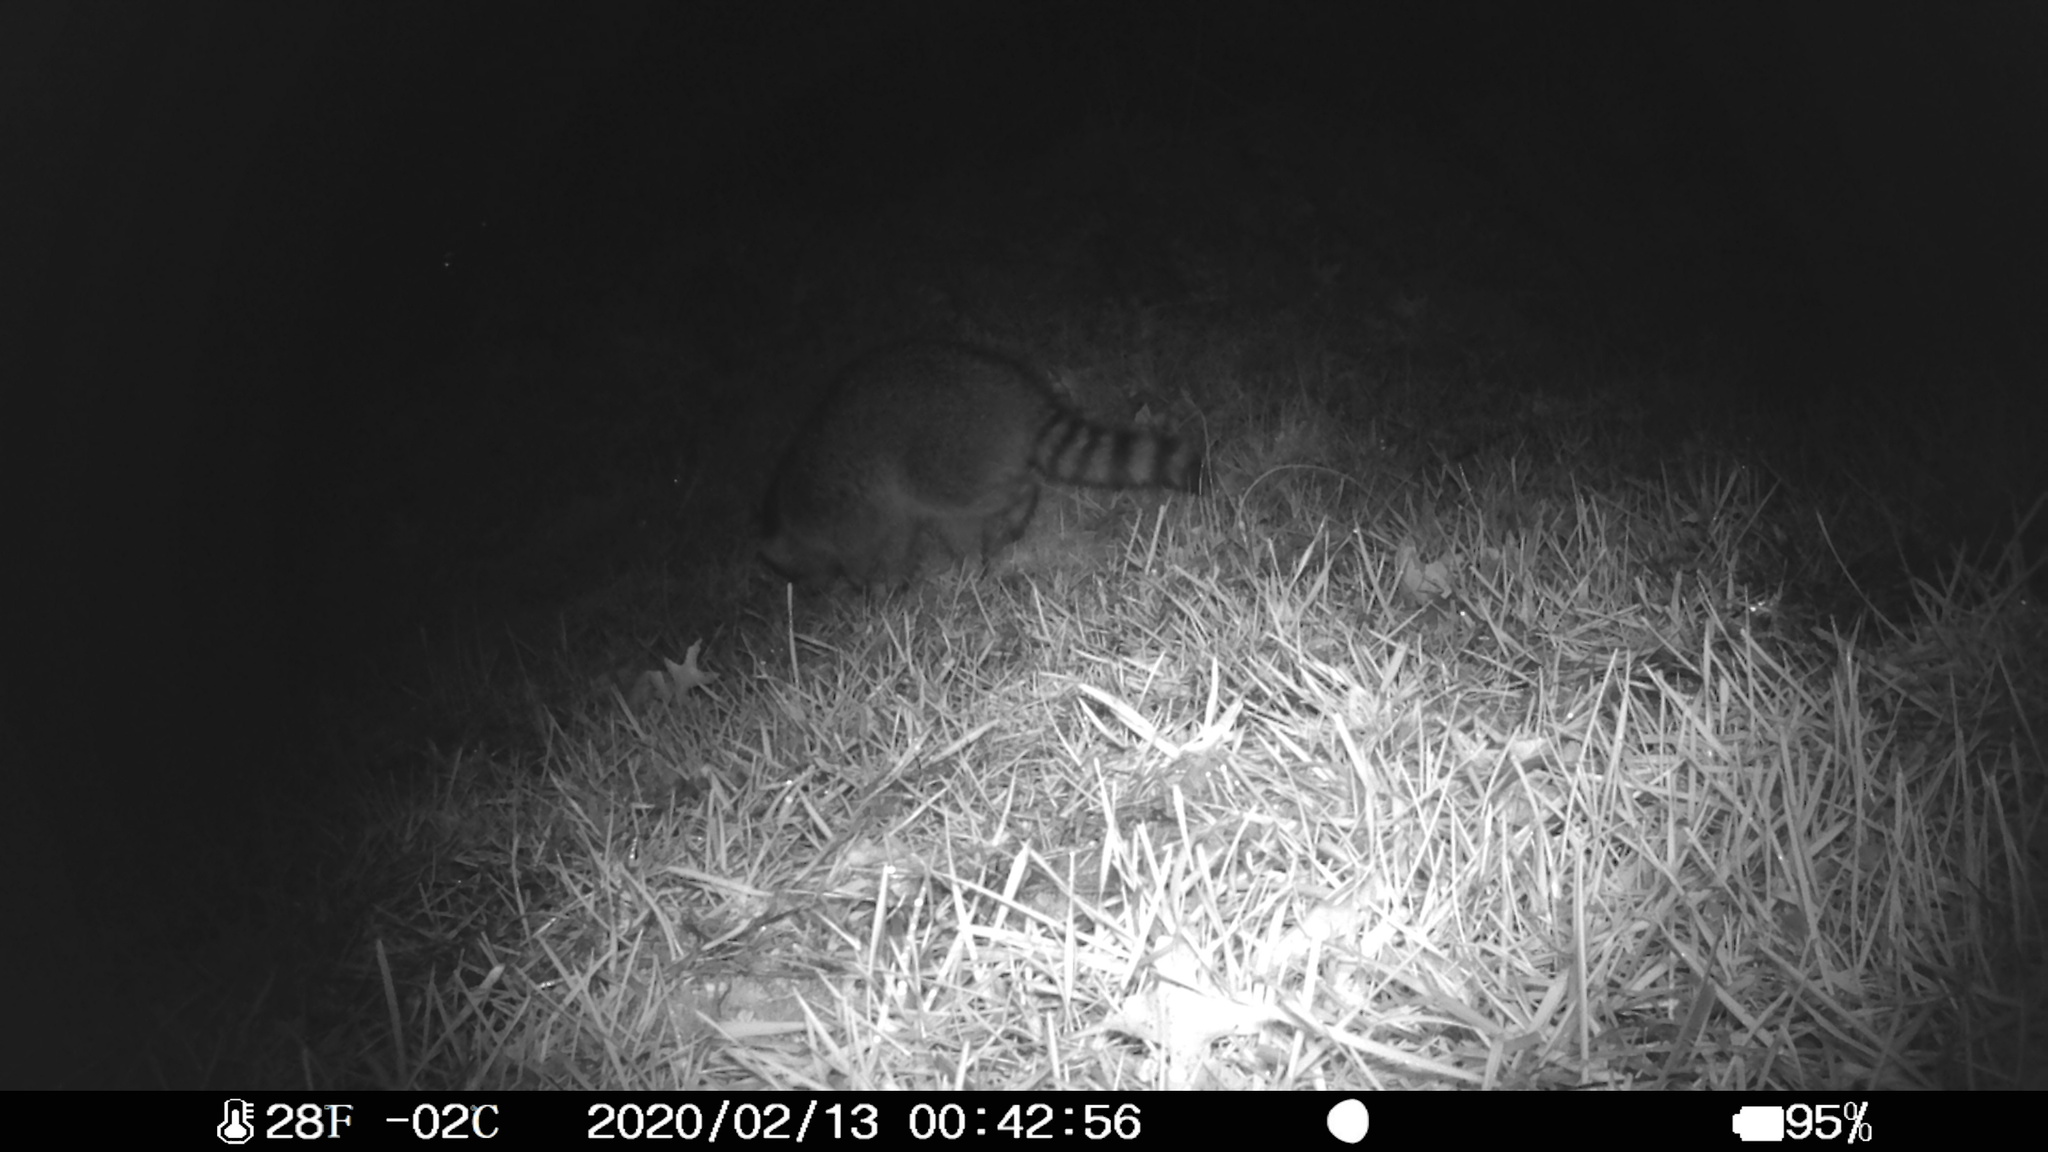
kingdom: Animalia
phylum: Chordata
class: Mammalia
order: Carnivora
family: Procyonidae
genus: Procyon
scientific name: Procyon lotor
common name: Raccoon
